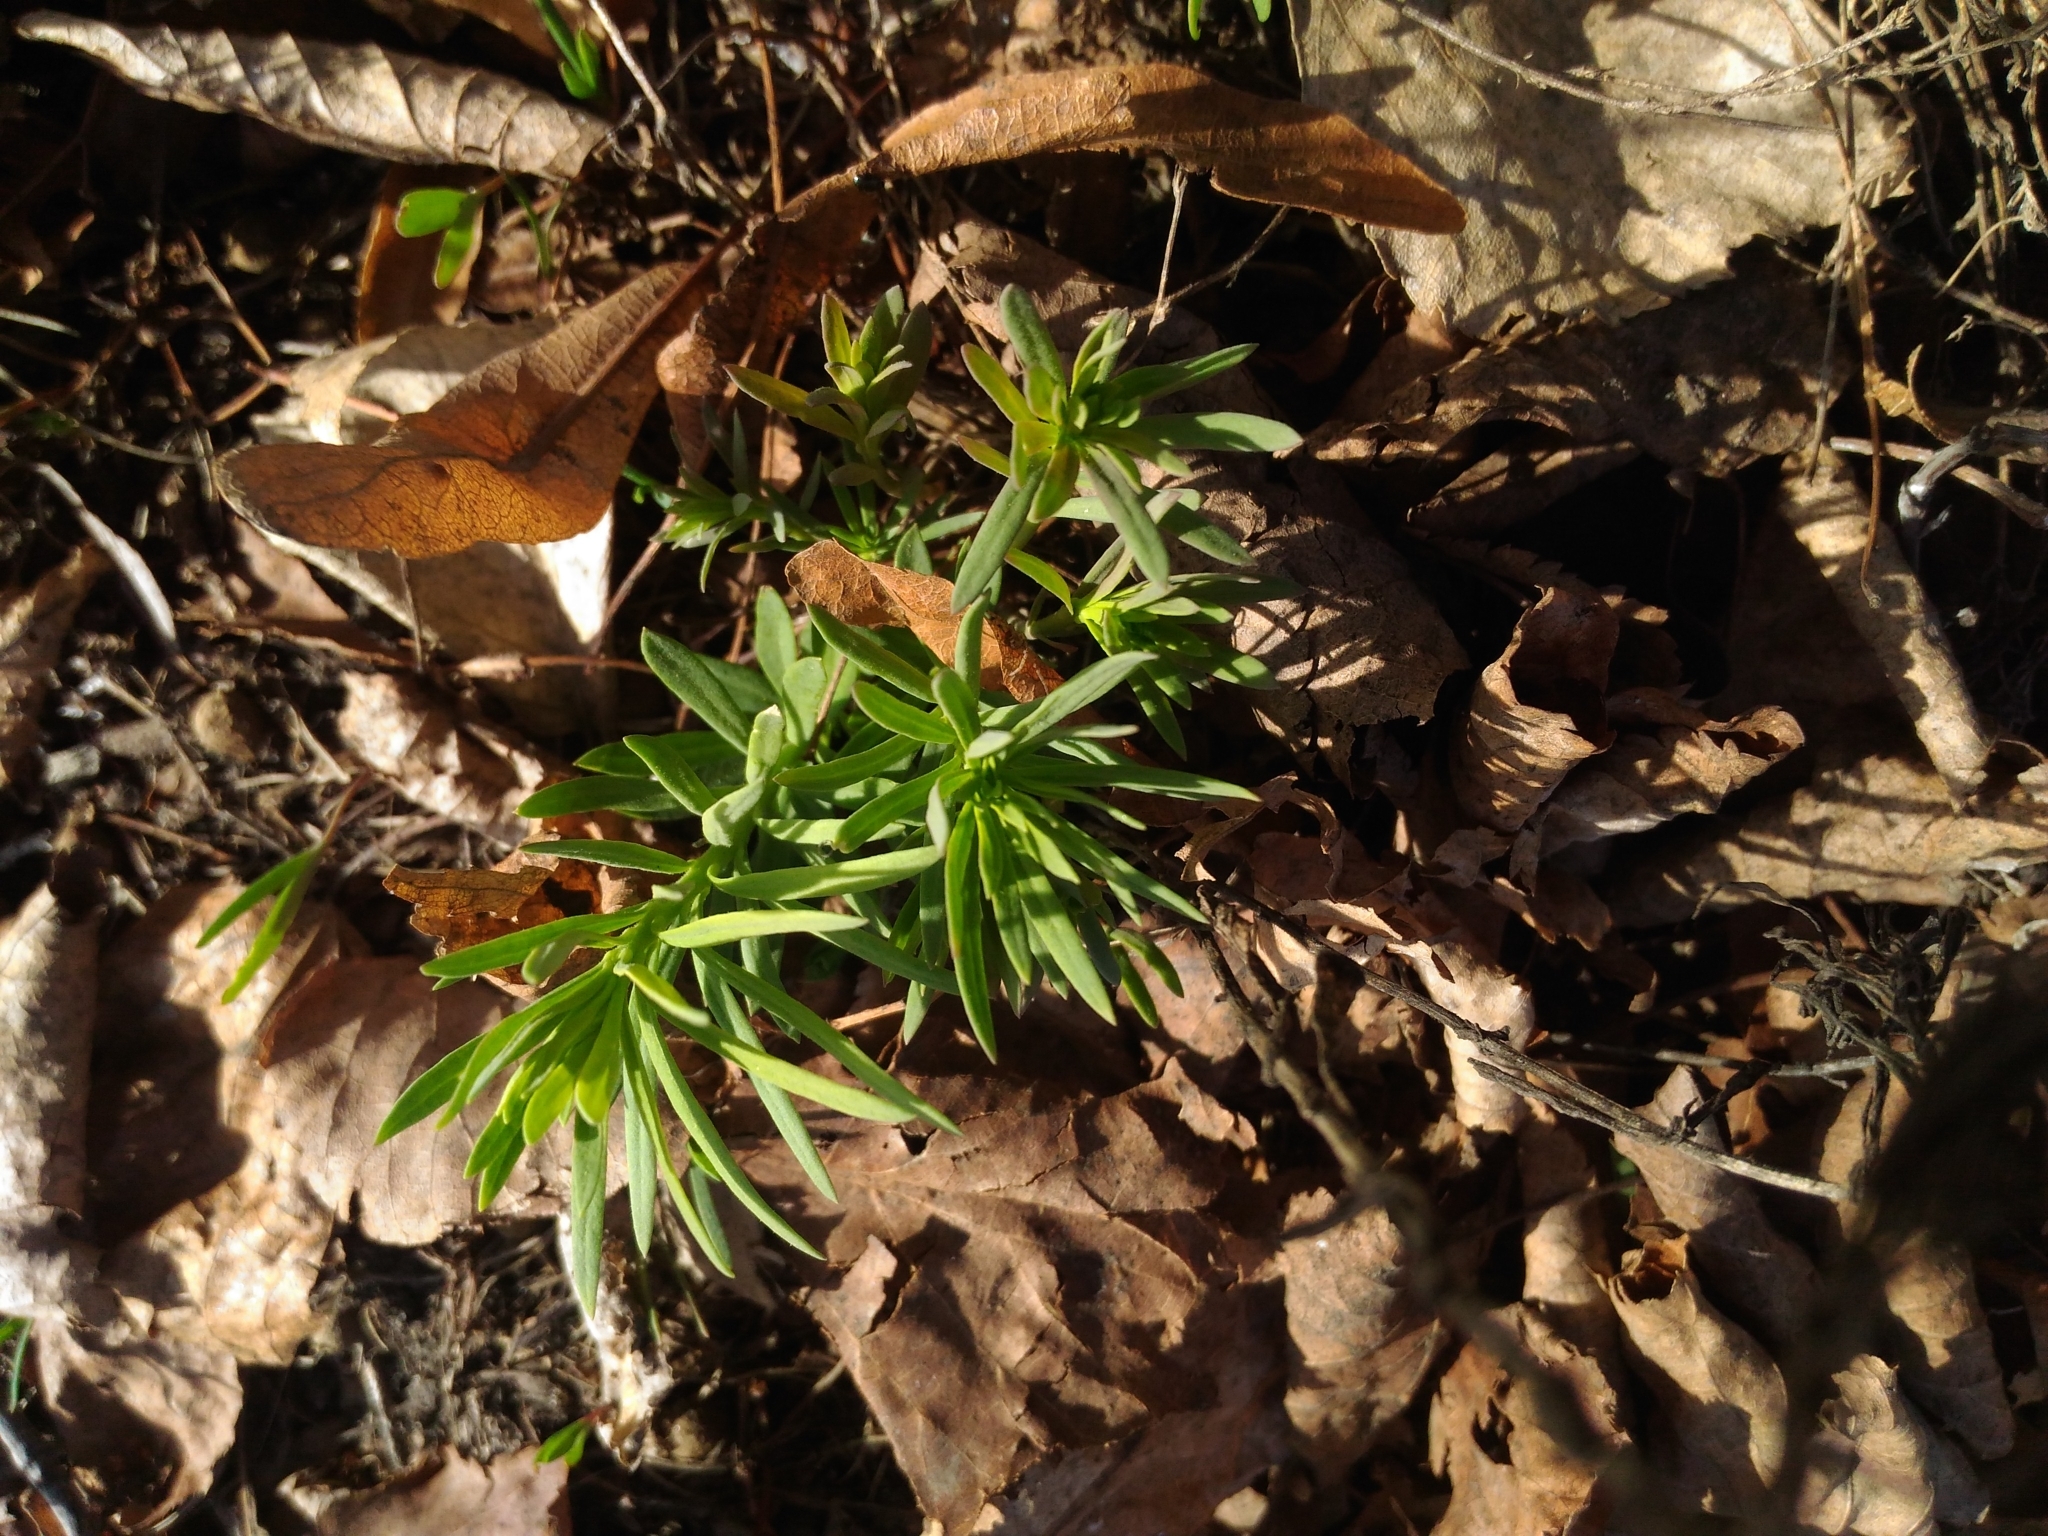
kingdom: Plantae
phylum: Tracheophyta
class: Magnoliopsida
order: Lamiales
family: Plantaginaceae
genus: Linaria
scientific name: Linaria vulgaris
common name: Butter and eggs
